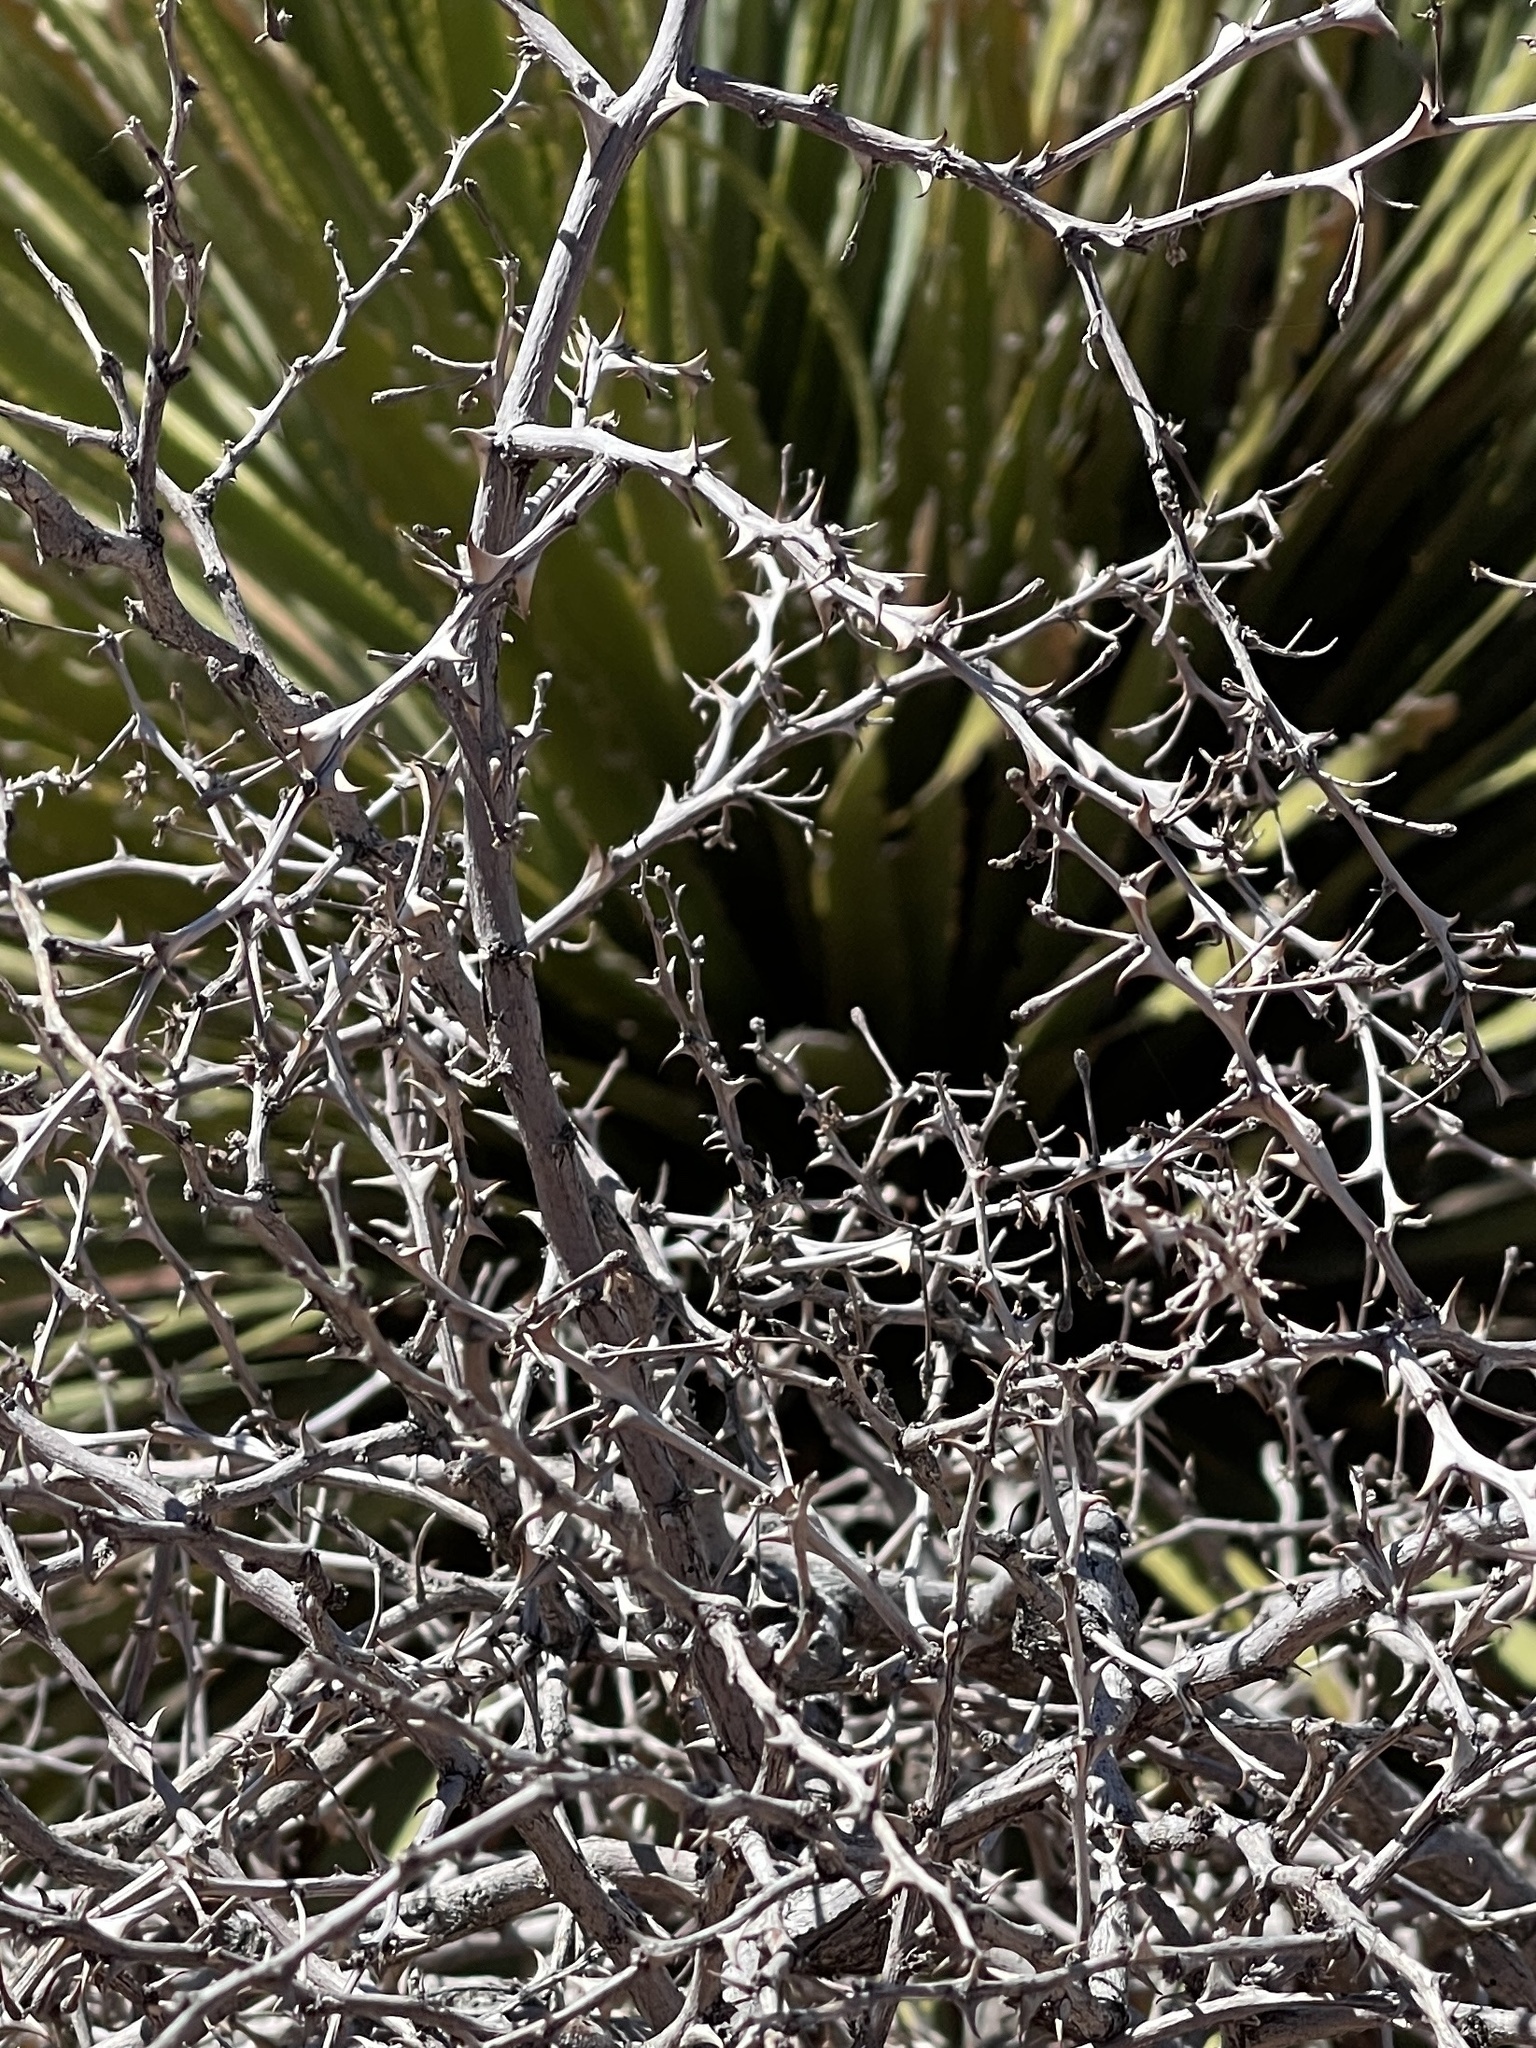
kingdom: Plantae
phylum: Tracheophyta
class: Magnoliopsida
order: Fabales
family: Fabaceae
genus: Mimosa
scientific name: Mimosa aculeaticarpa
